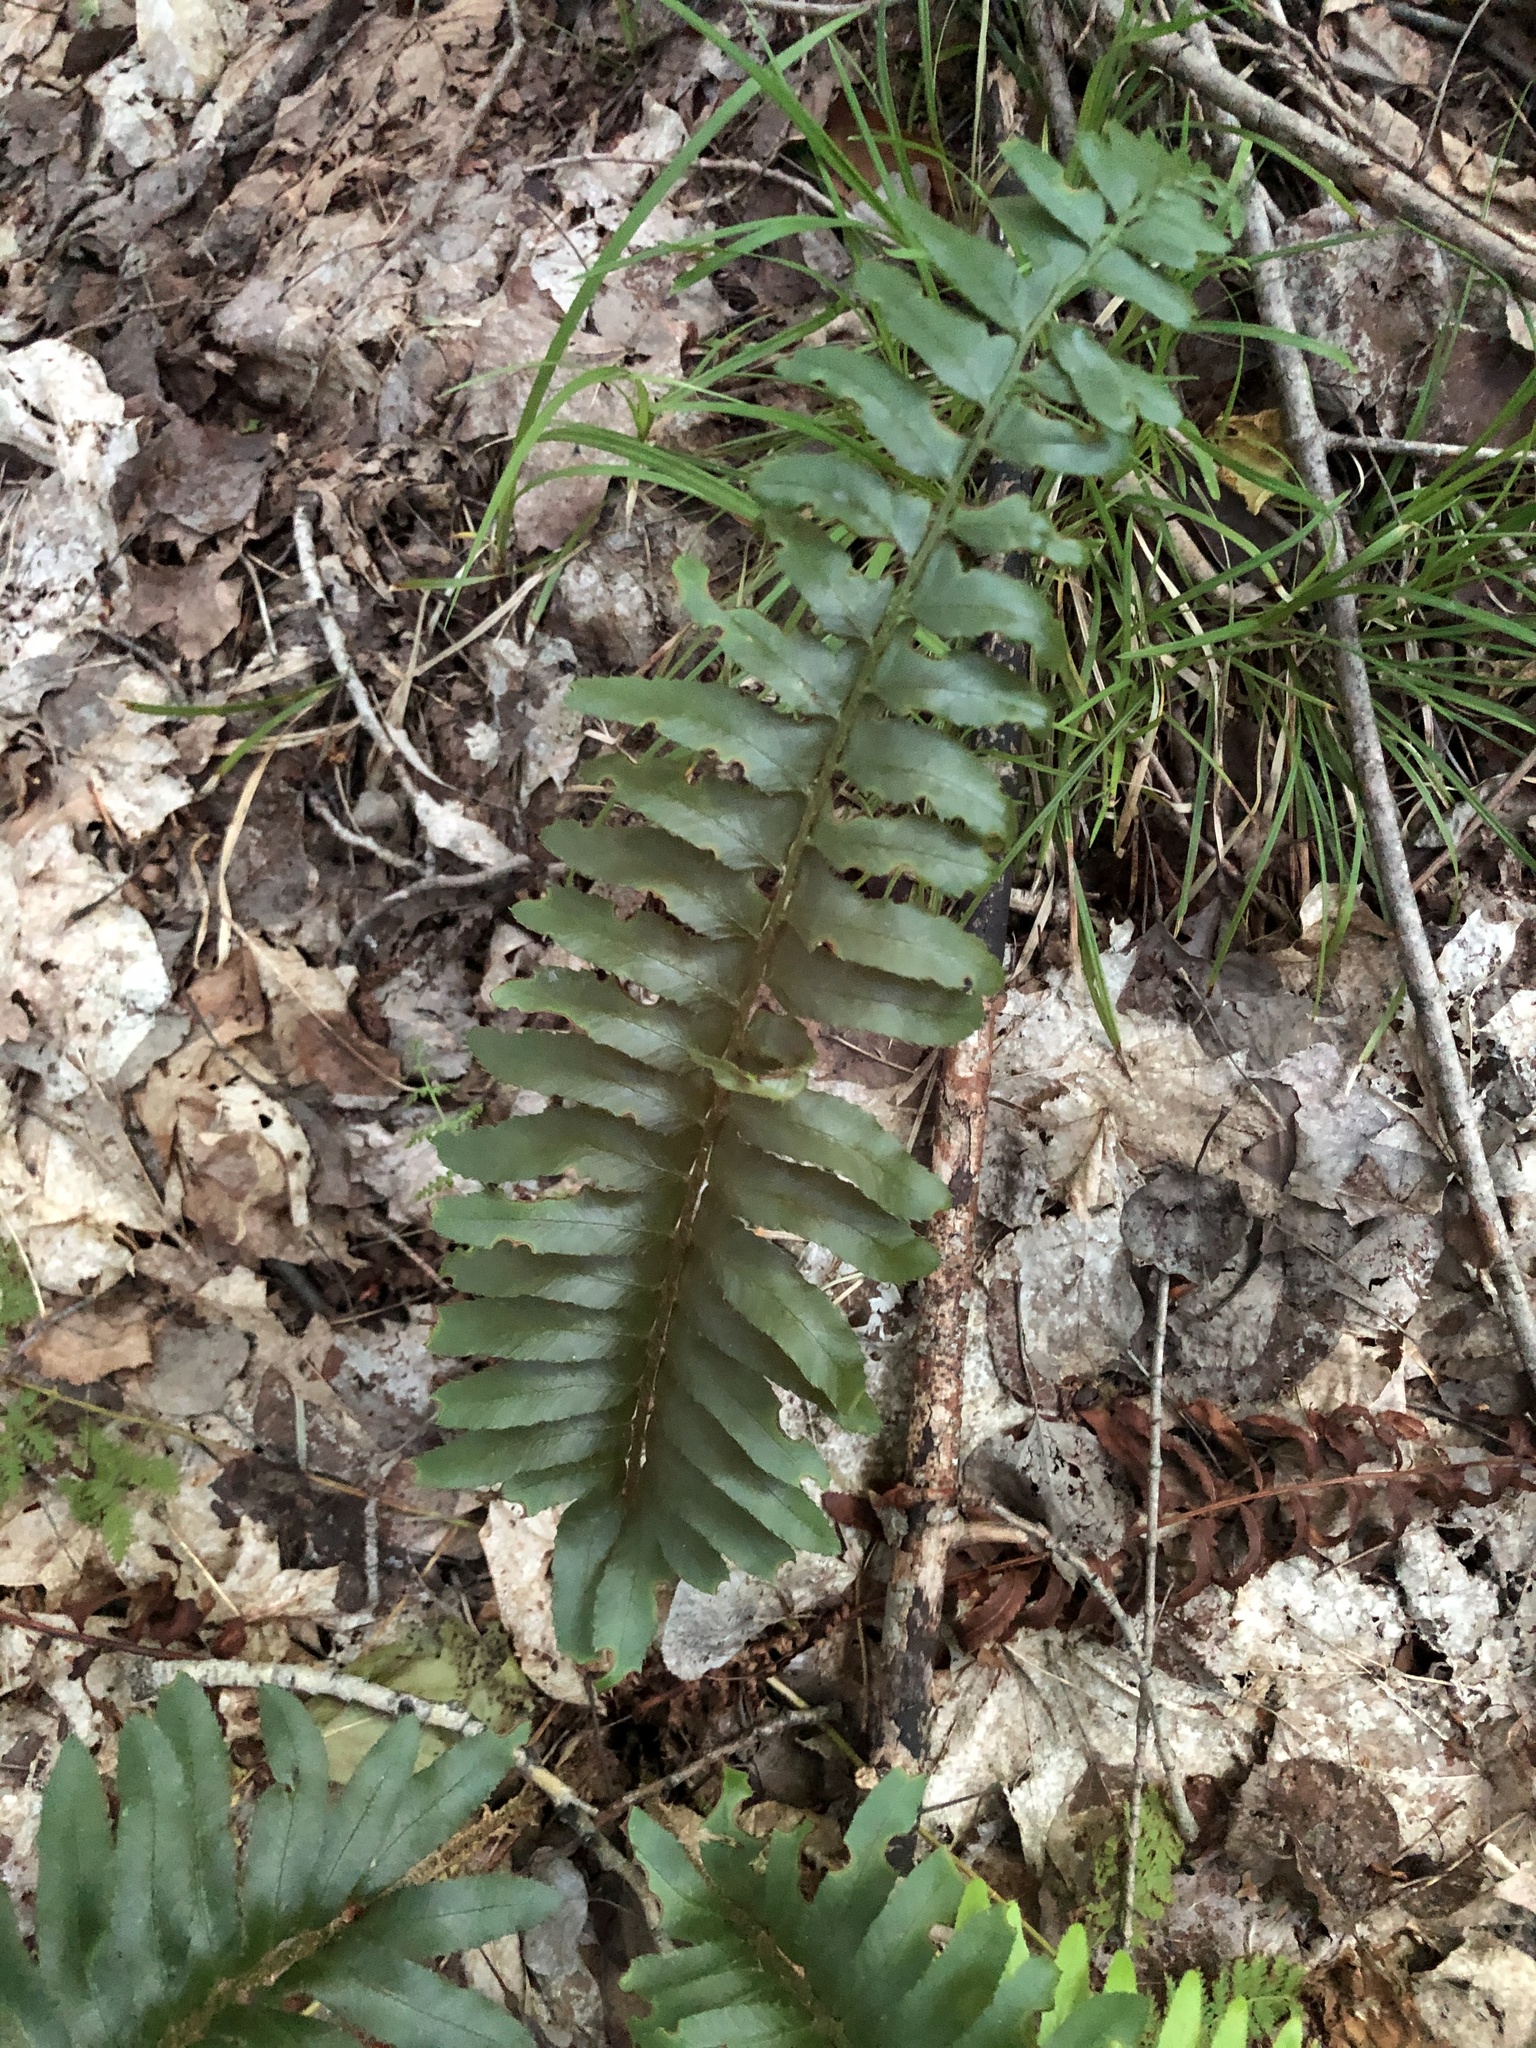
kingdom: Plantae
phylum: Tracheophyta
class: Polypodiopsida
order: Polypodiales
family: Dryopteridaceae
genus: Polystichum
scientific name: Polystichum acrostichoides
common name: Christmas fern
